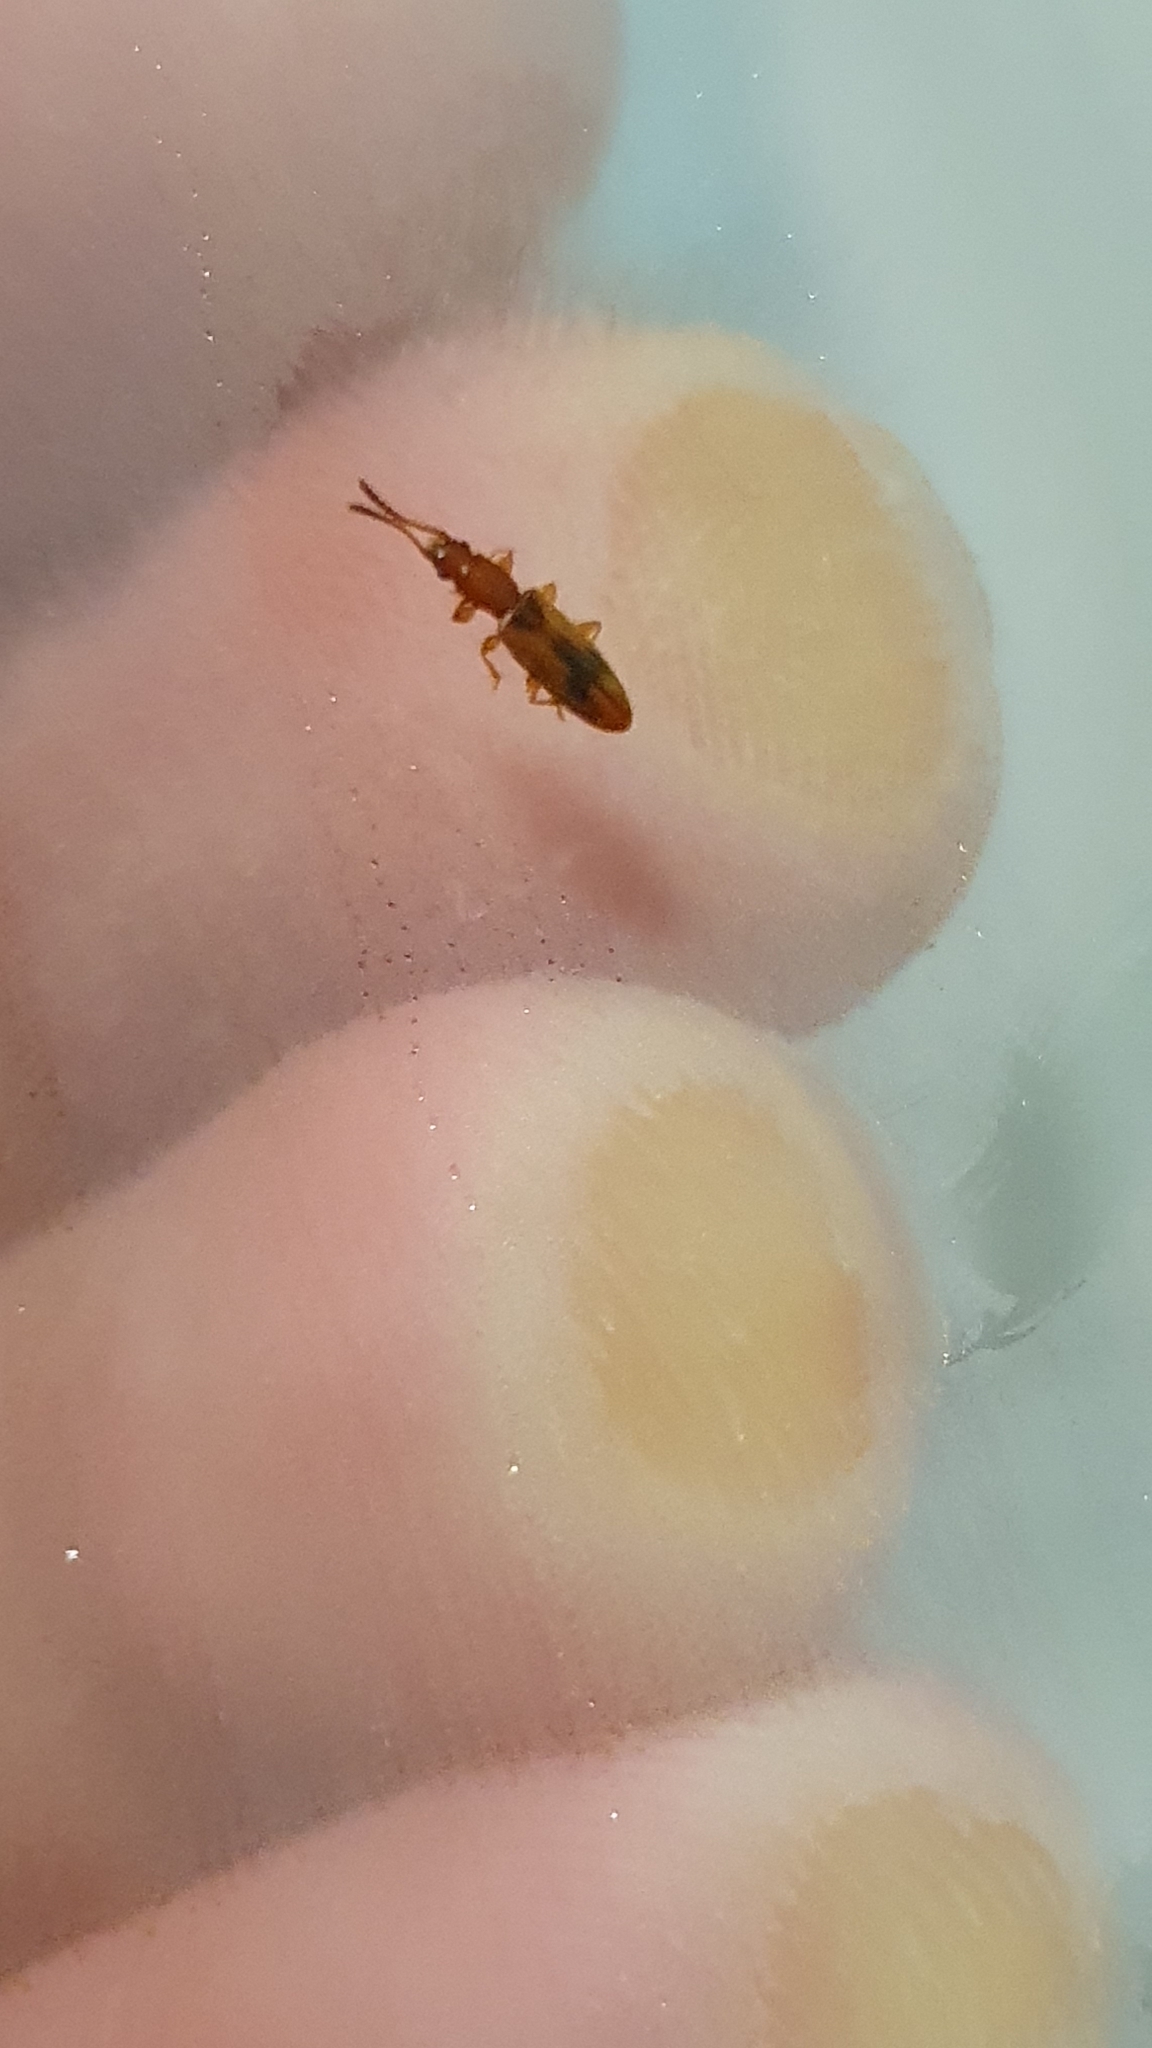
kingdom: Animalia
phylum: Arthropoda
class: Insecta
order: Coleoptera
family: Silvanidae
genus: Cryptamorpha
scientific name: Cryptamorpha desjardinsi
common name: Cryptamorpha
